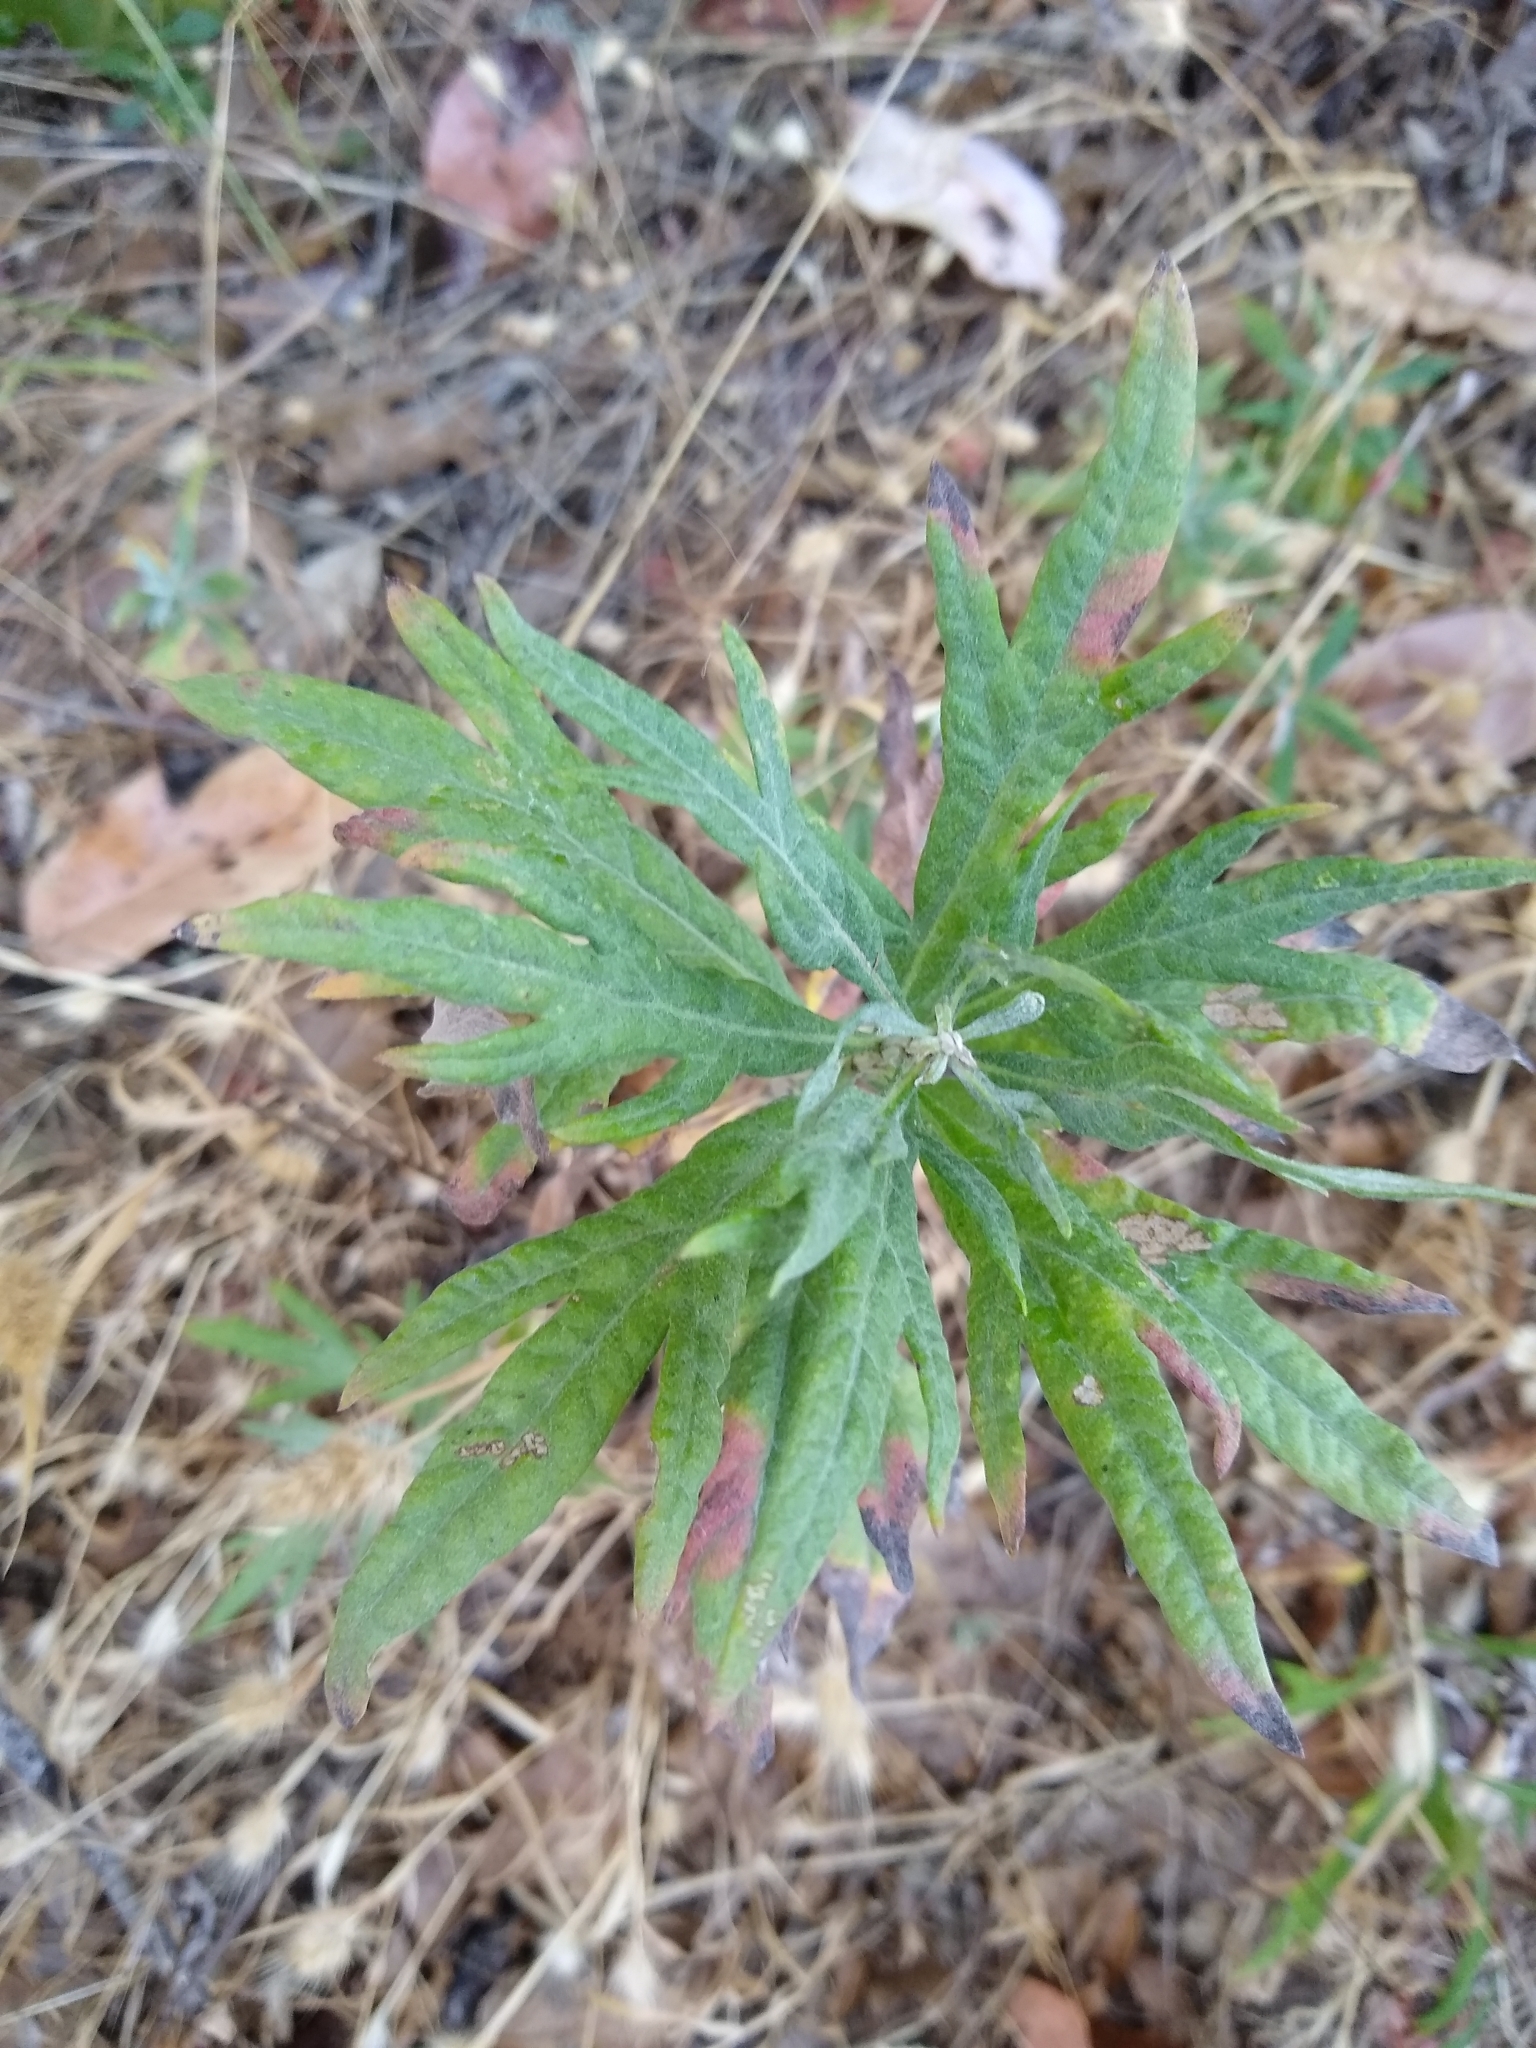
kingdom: Plantae
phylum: Tracheophyta
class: Magnoliopsida
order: Asterales
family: Asteraceae
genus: Artemisia
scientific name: Artemisia douglasiana
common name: Northwest mugwort
